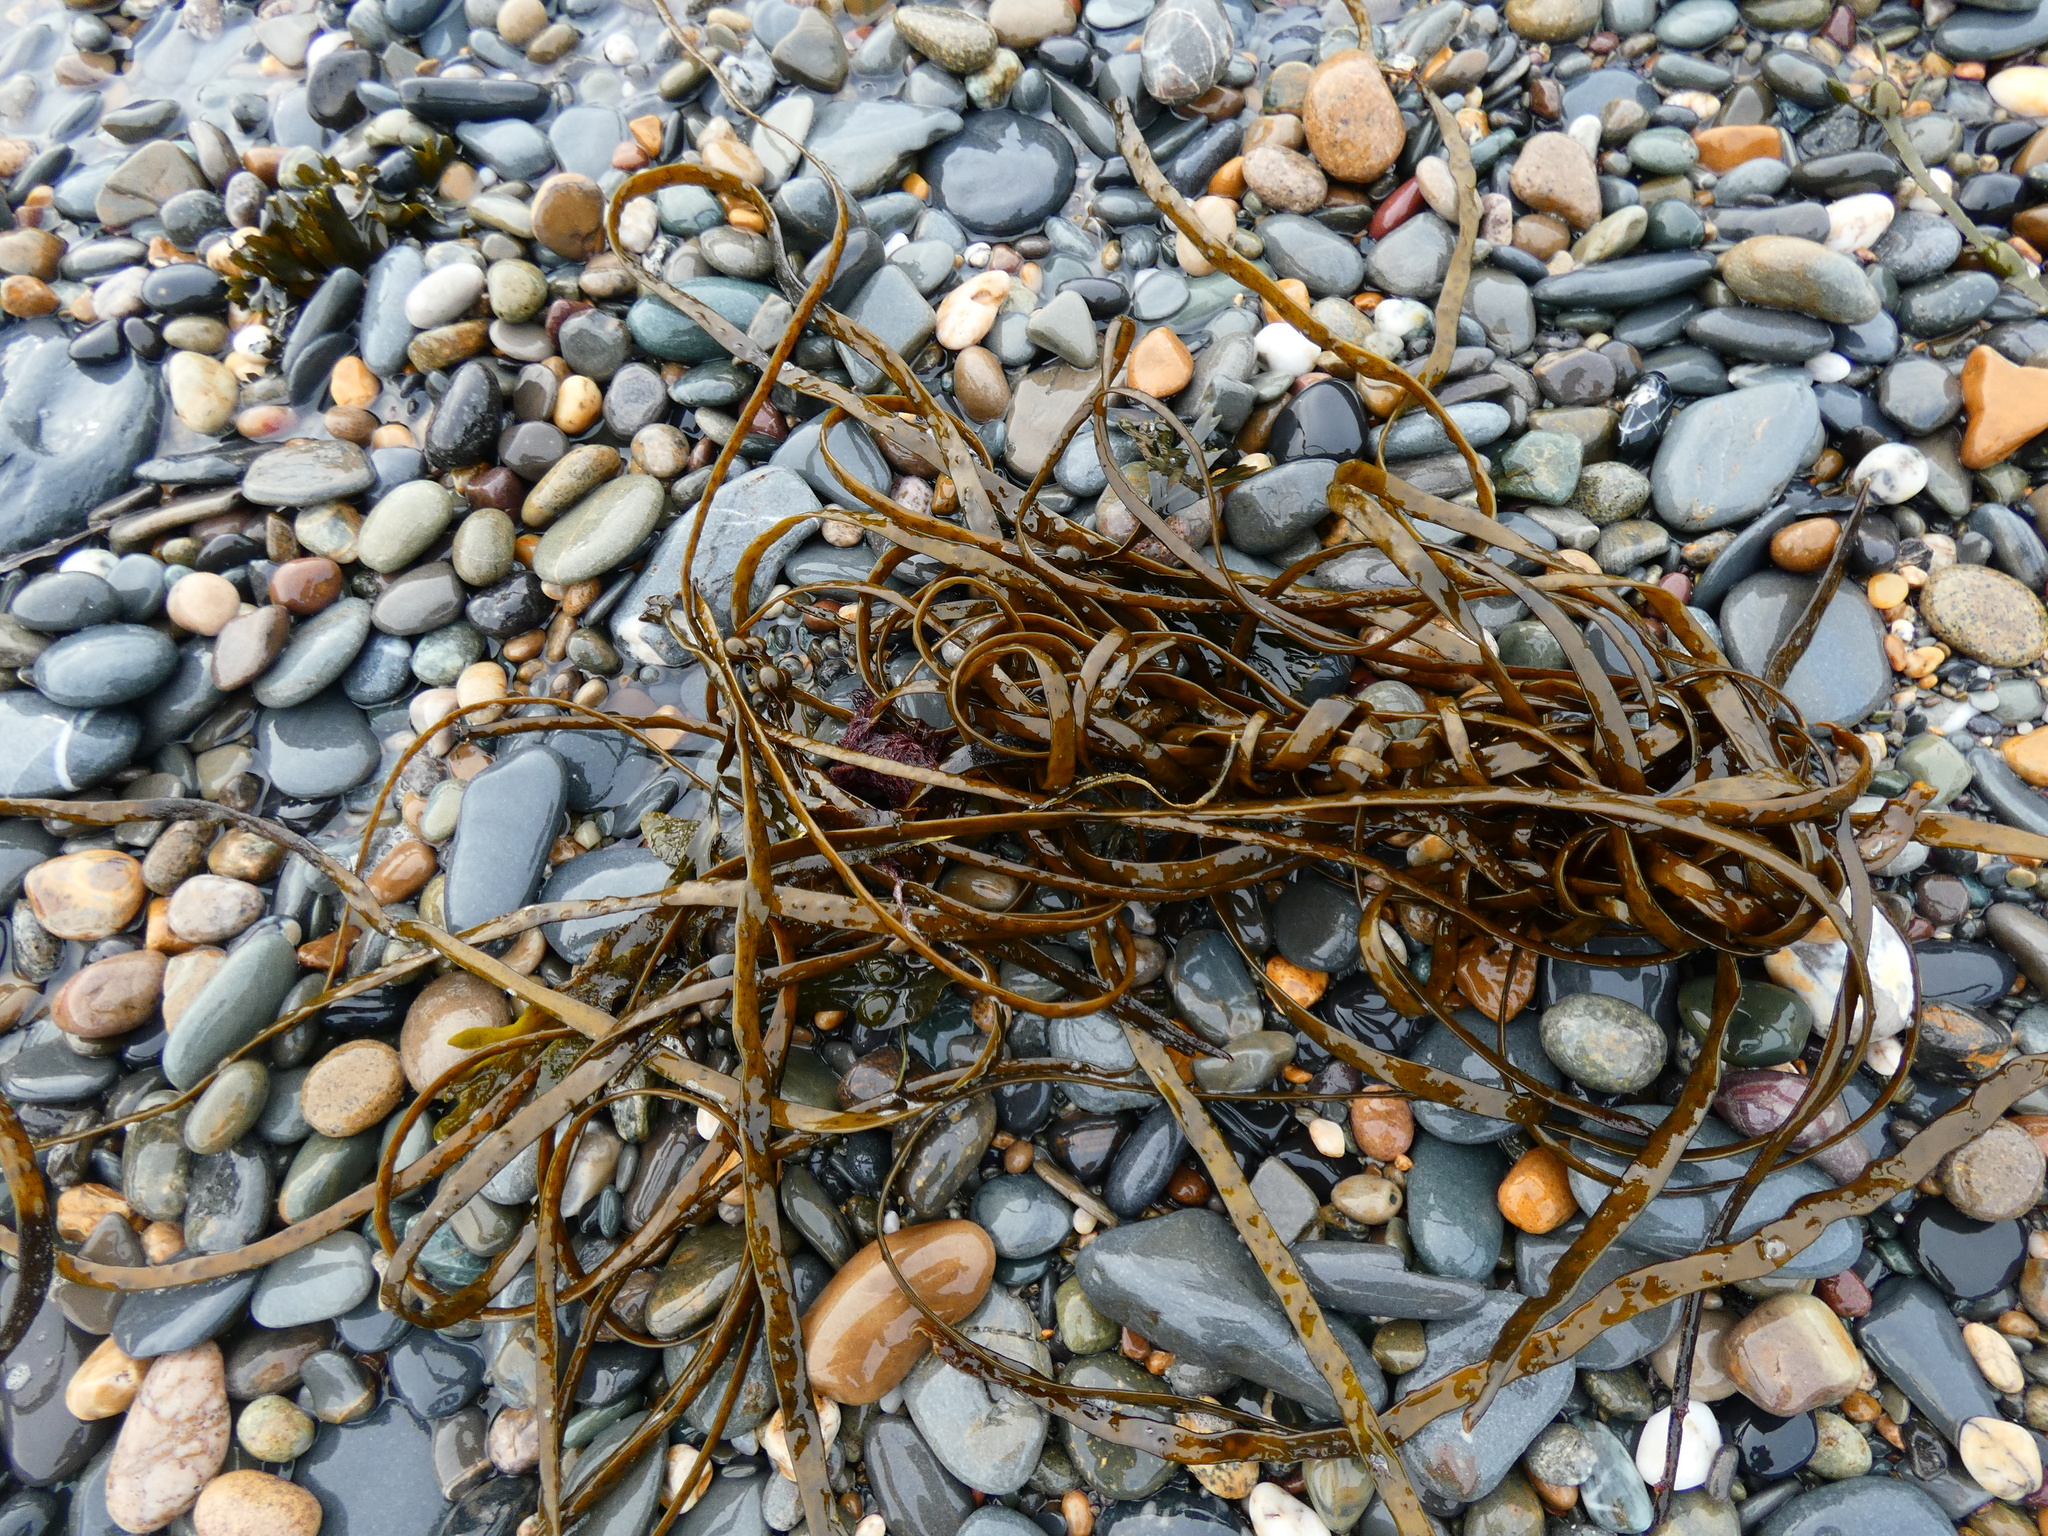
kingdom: Chromista
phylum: Ochrophyta
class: Phaeophyceae
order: Fucales
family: Himanthaliaceae
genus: Himanthalia
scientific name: Himanthalia elongata
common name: Sea-thong
